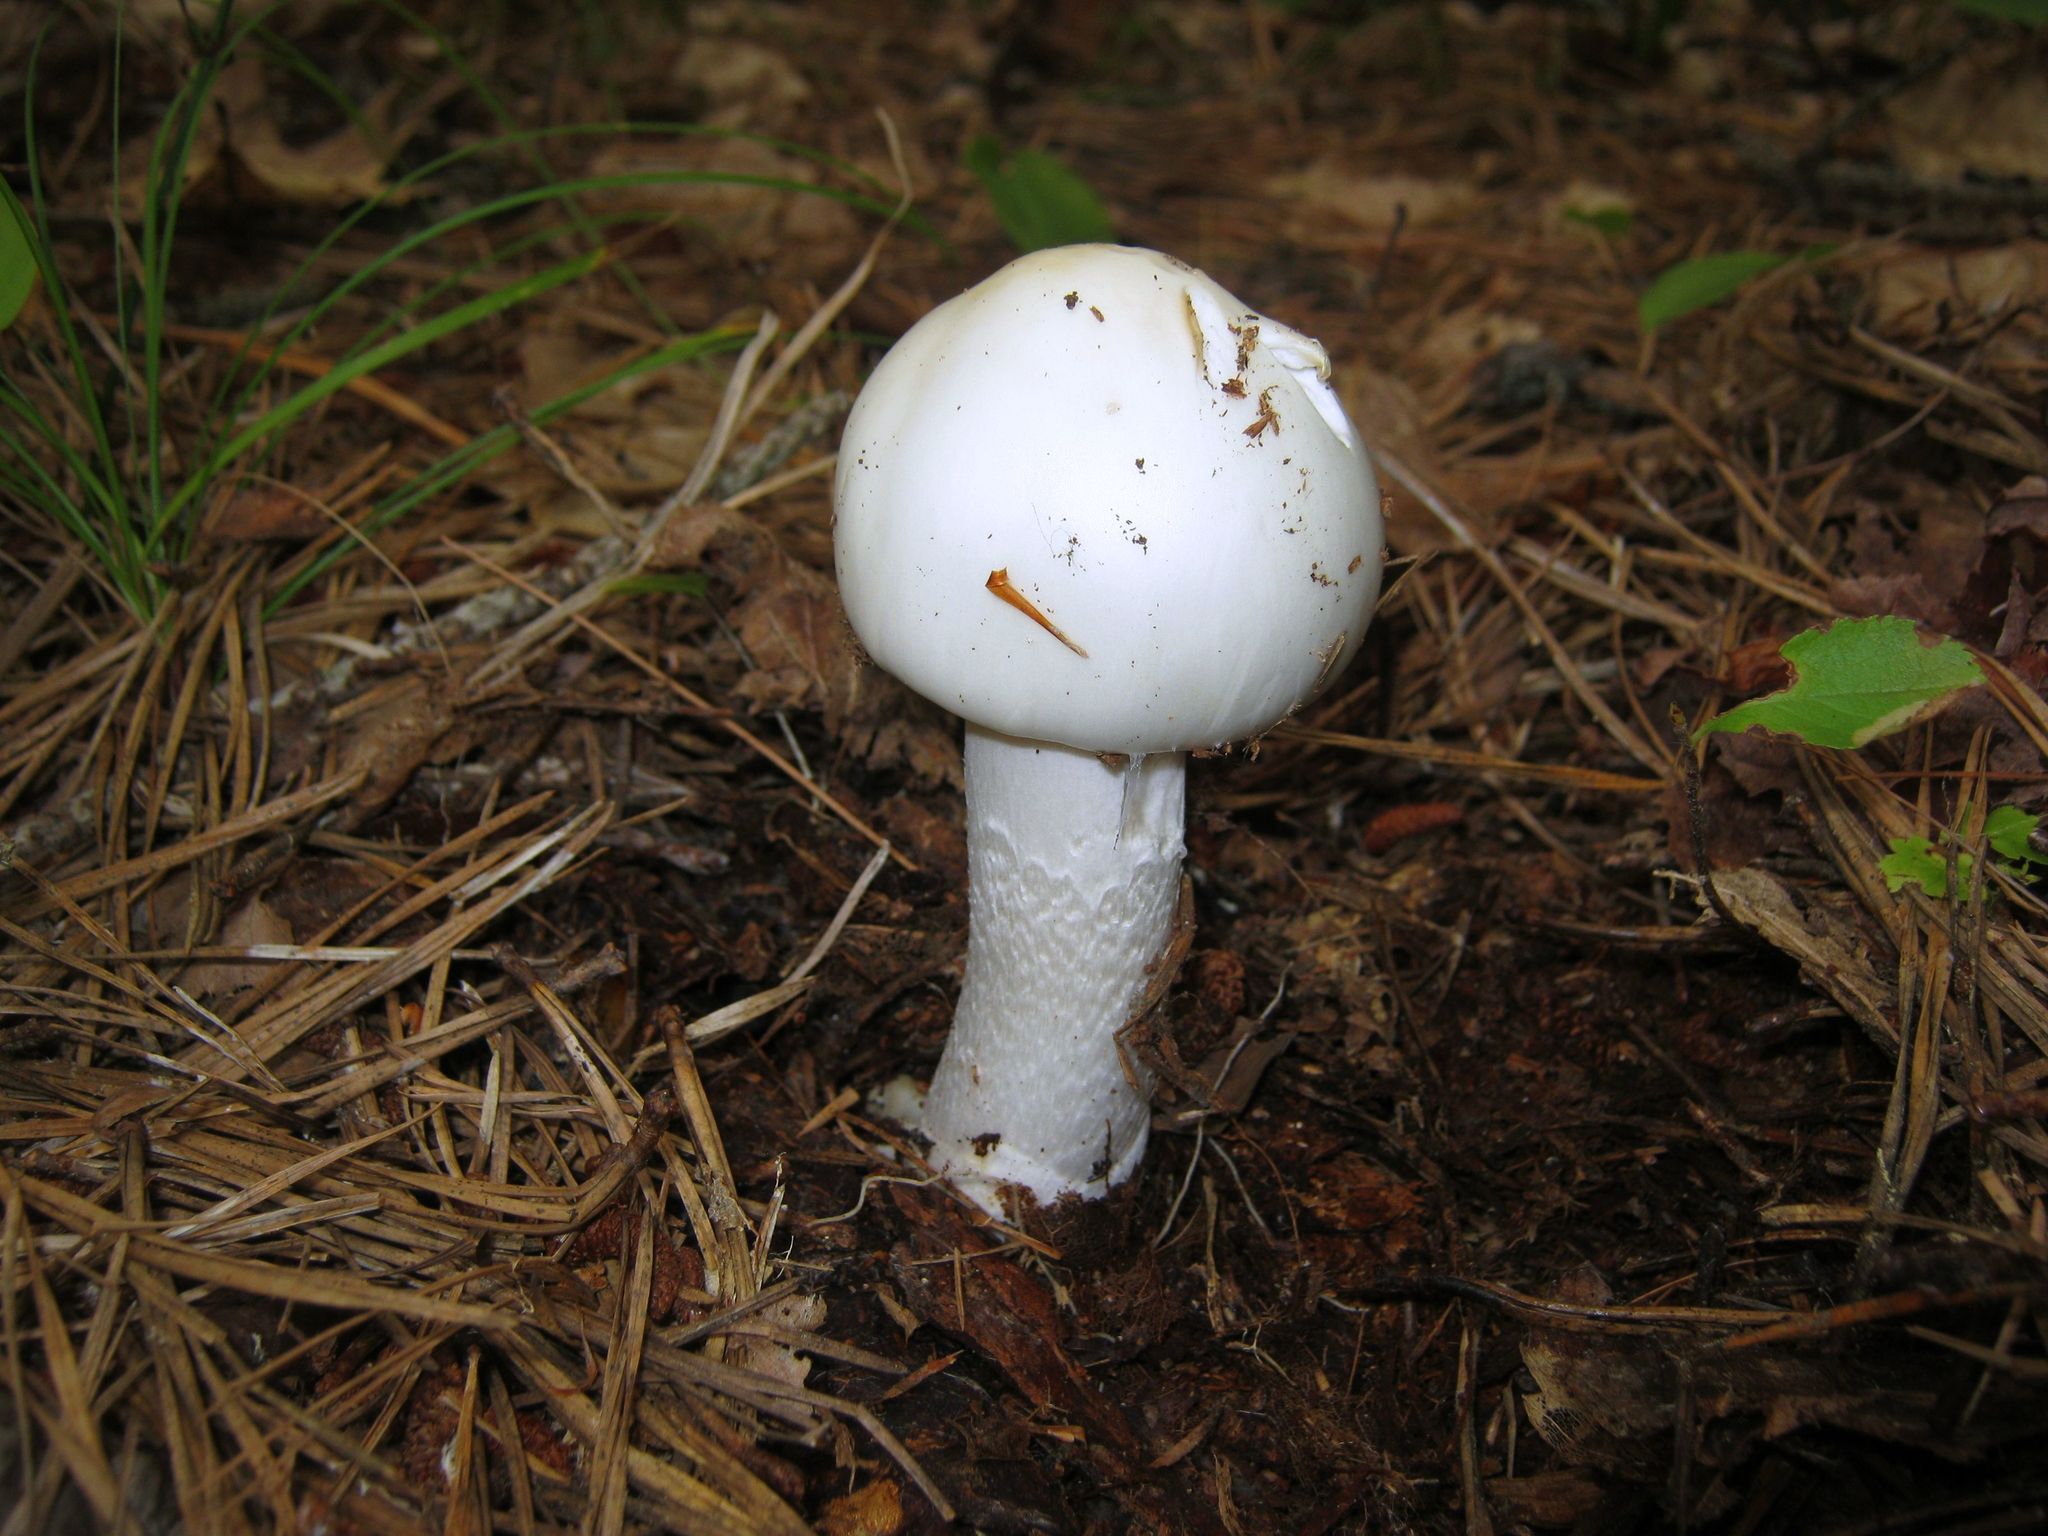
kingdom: Fungi
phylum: Basidiomycota
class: Agaricomycetes
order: Agaricales
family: Amanitaceae
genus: Amanita
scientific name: Amanita bisporigera
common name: Eastern north american destroying angel
